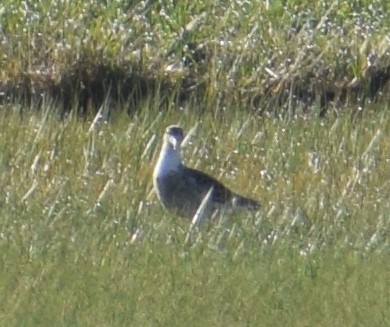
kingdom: Animalia
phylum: Chordata
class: Aves
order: Charadriiformes
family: Scolopacidae
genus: Calidris
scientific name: Calidris pugnax
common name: Ruff
